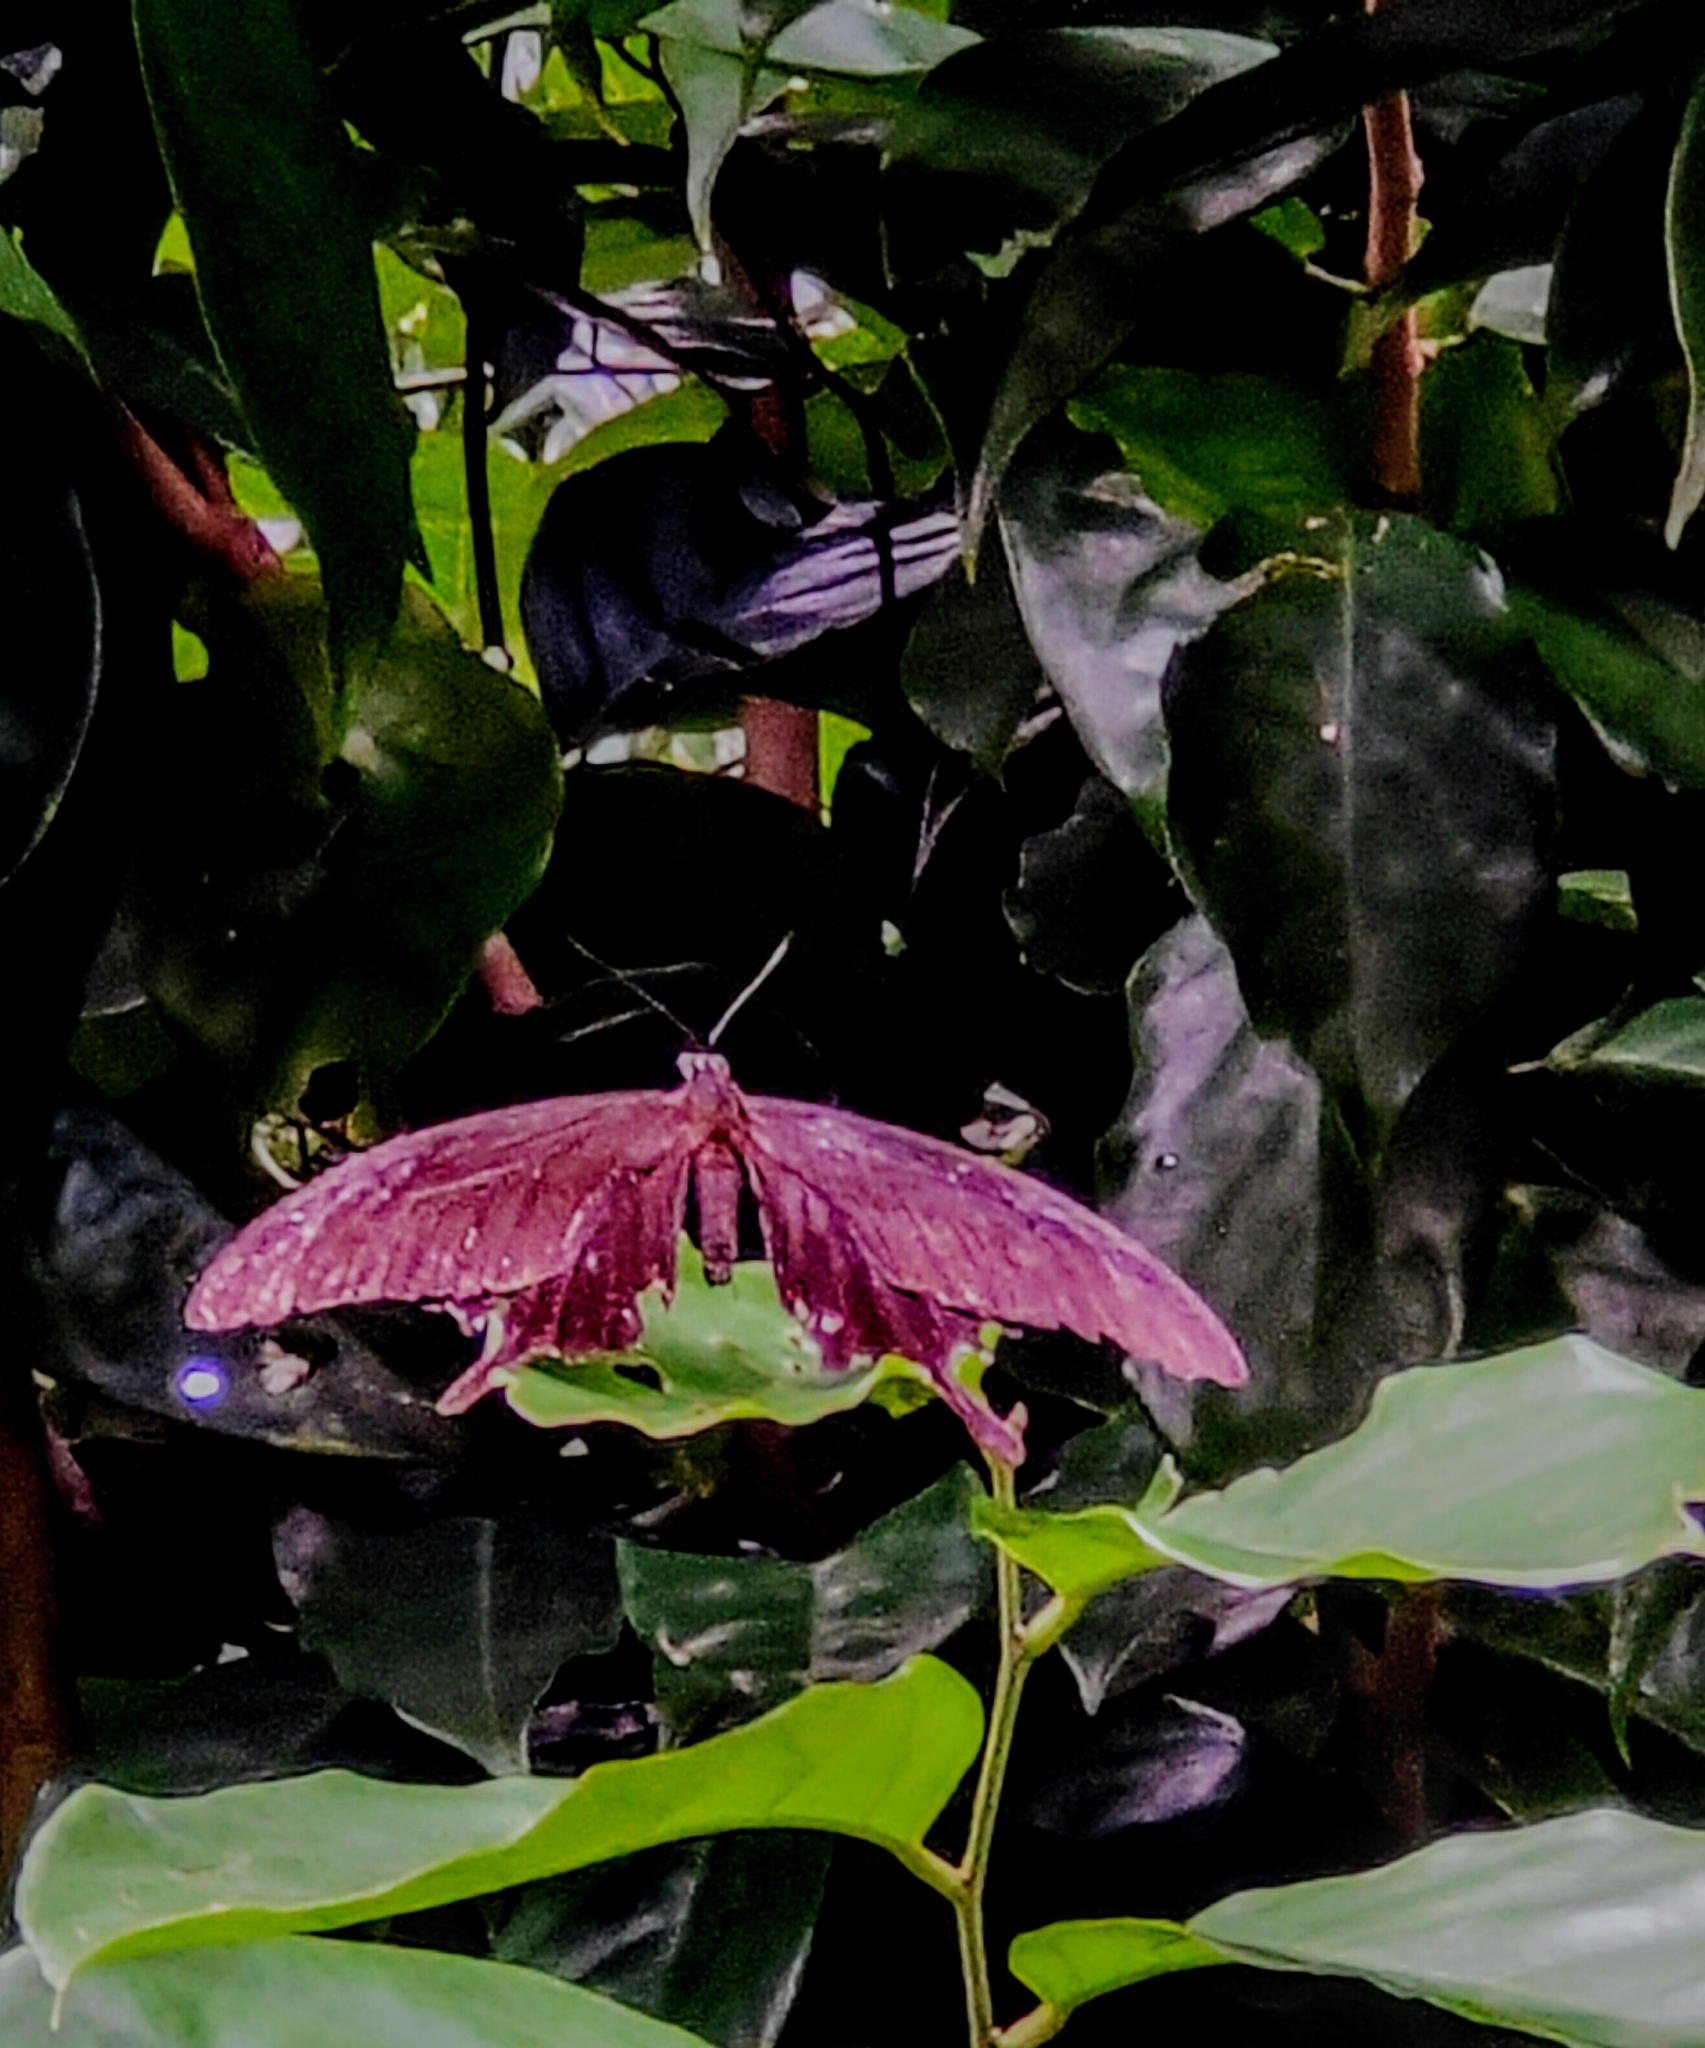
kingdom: Animalia
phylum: Arthropoda
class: Insecta
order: Lepidoptera
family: Papilionidae
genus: Papilio
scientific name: Papilio iswara
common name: Great helen swallowtail
